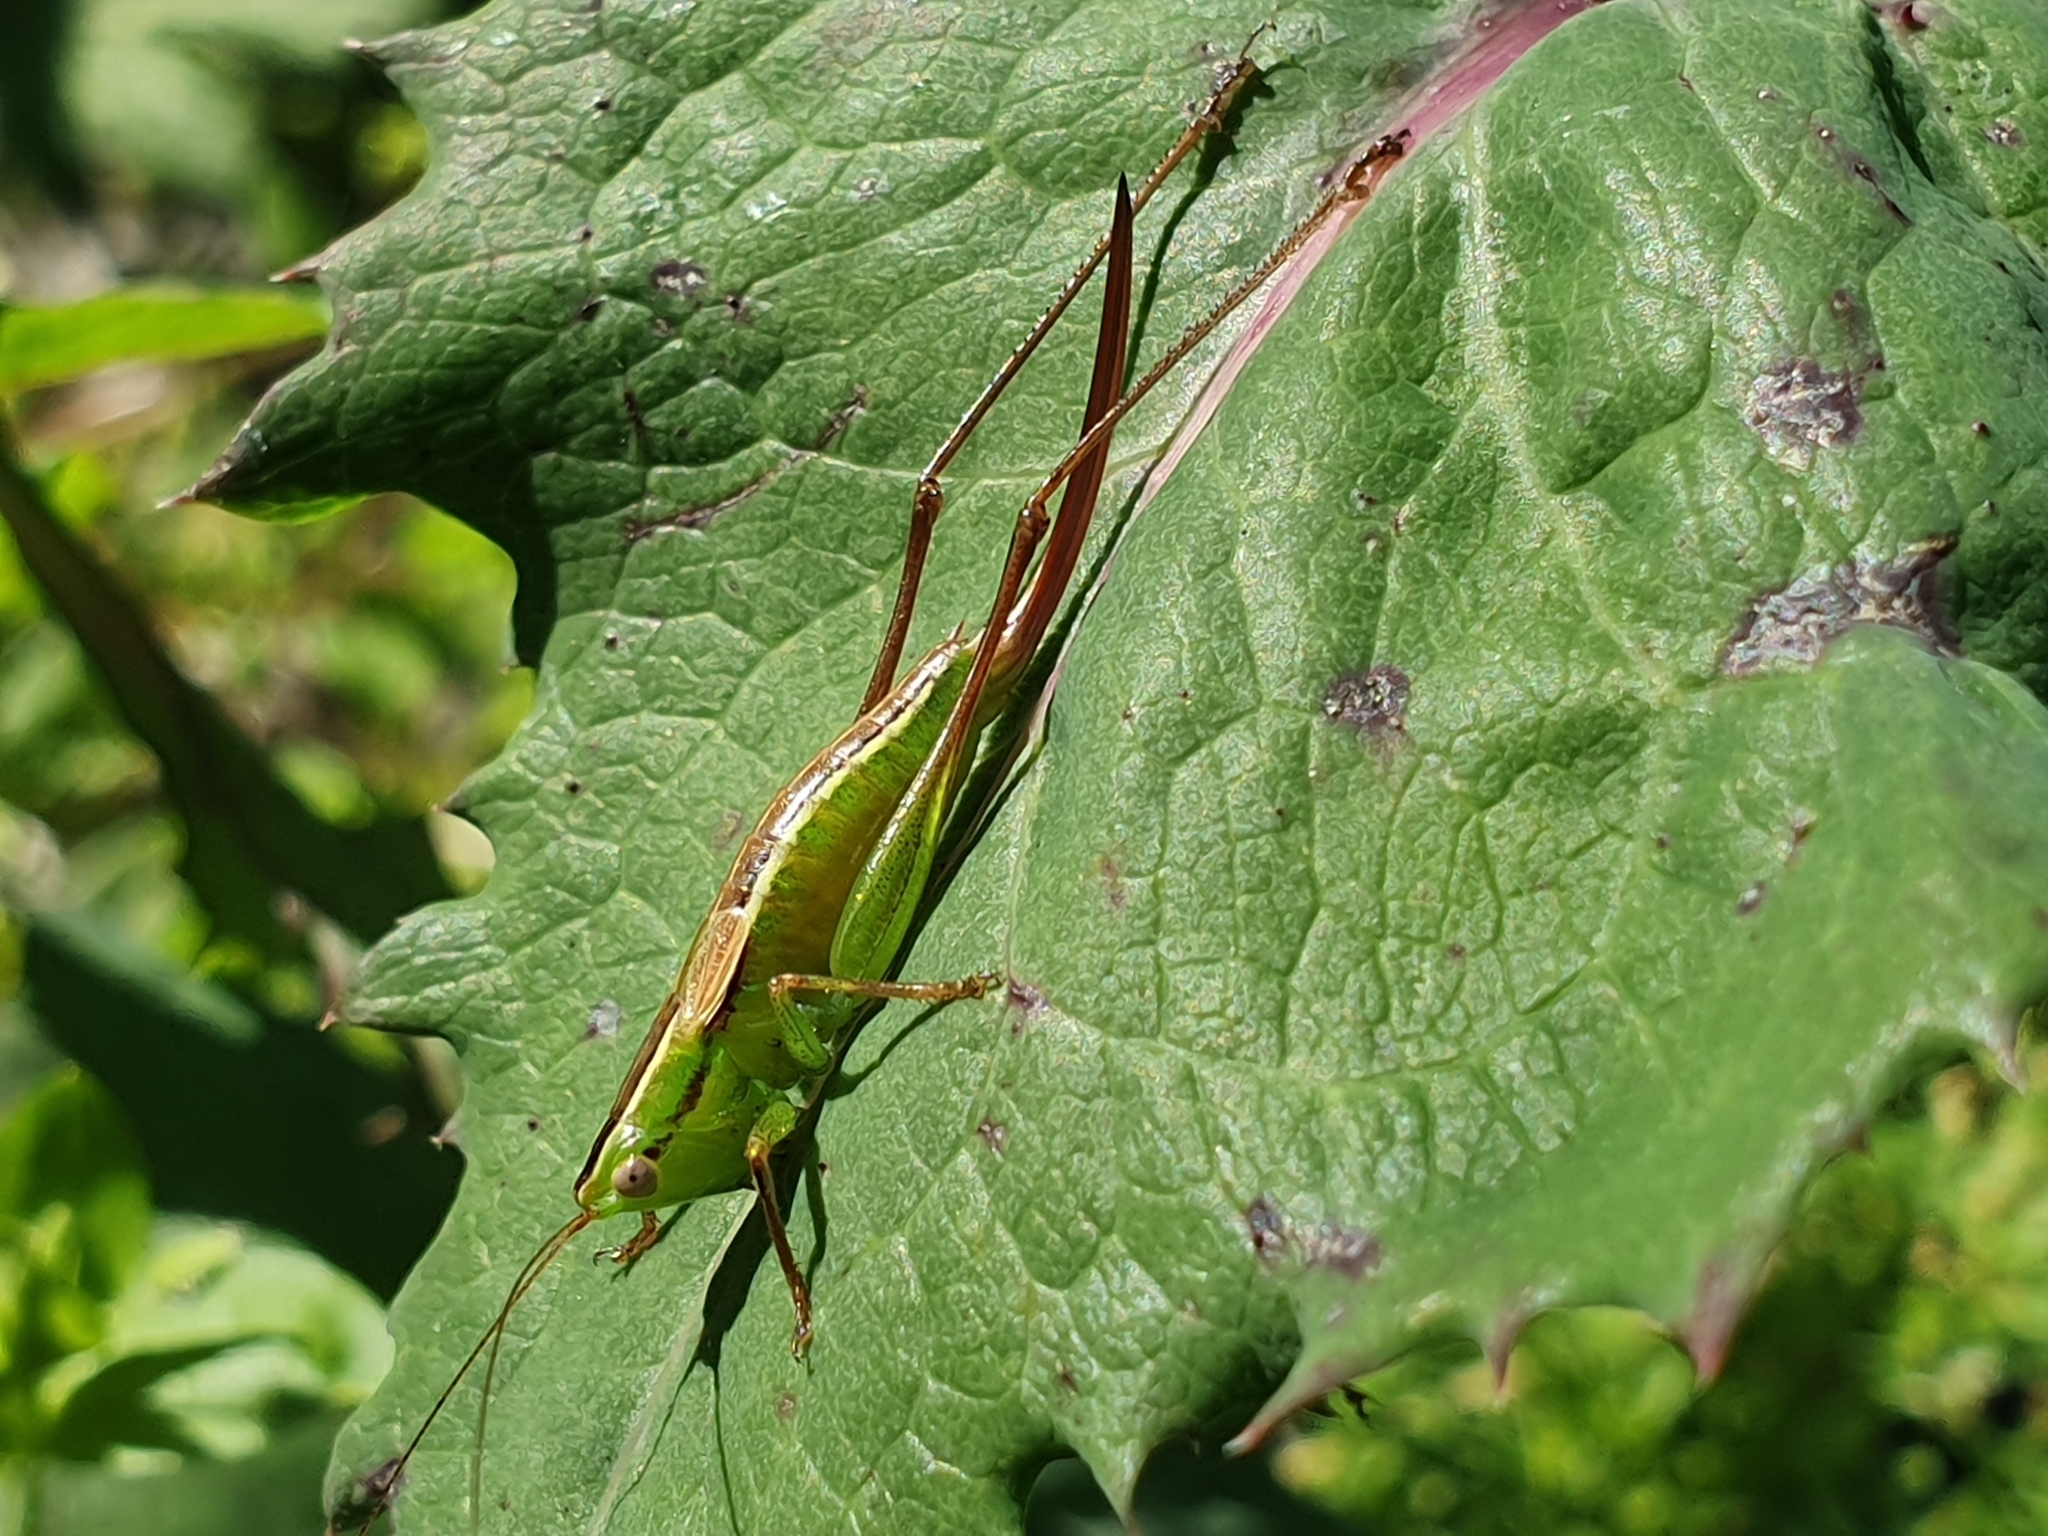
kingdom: Animalia
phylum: Arthropoda
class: Insecta
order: Orthoptera
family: Tettigoniidae
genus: Conocephalus
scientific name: Conocephalus bilineatus
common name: Small meadow katydid
